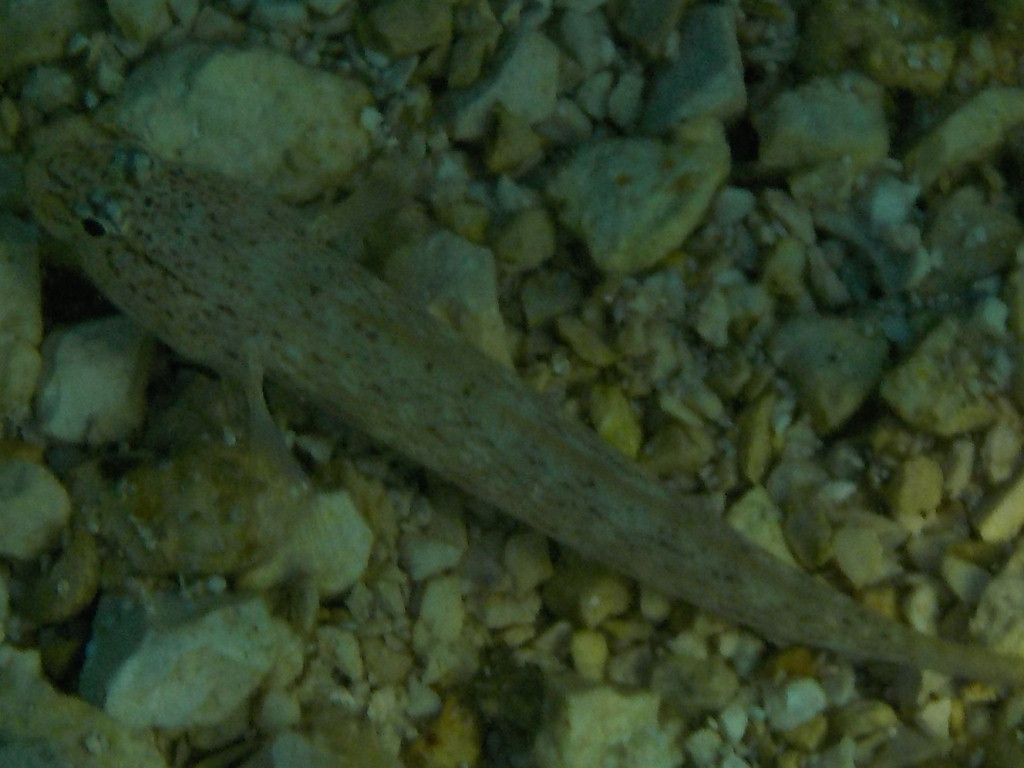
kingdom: Animalia
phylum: Chordata
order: Perciformes
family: Gobiidae
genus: Gobius
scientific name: Gobius bucchichi
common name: Bucchich's goby
